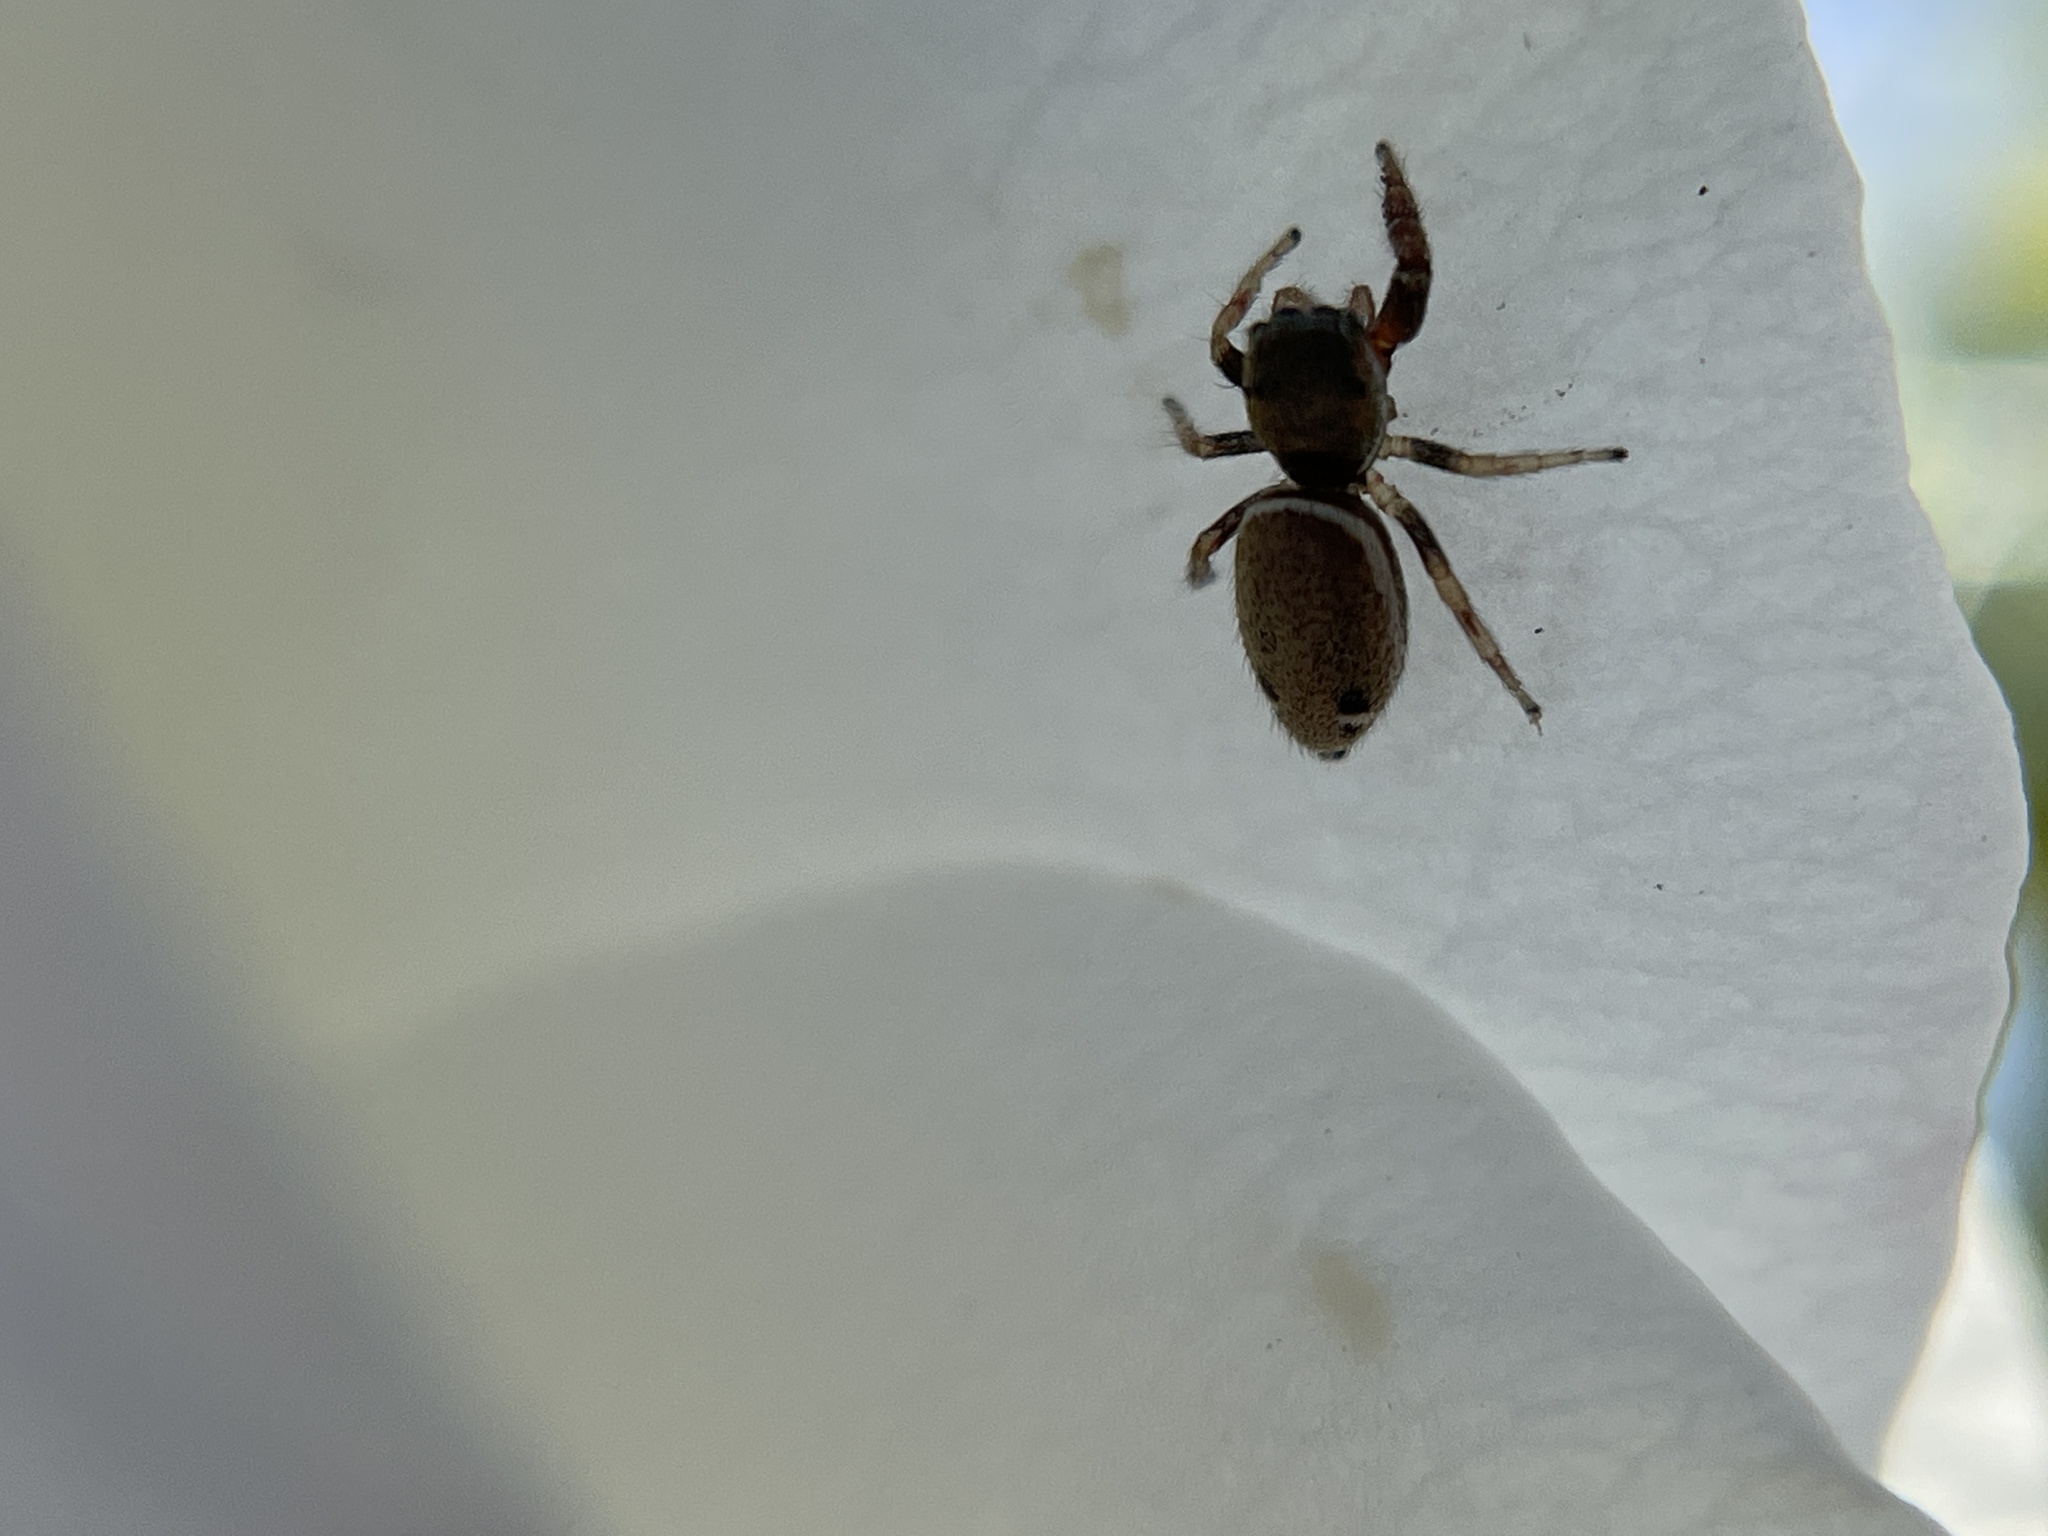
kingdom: Animalia
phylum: Arthropoda
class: Arachnida
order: Araneae
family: Salticidae
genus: Sassacus
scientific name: Sassacus vitis
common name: Jumping spiders
